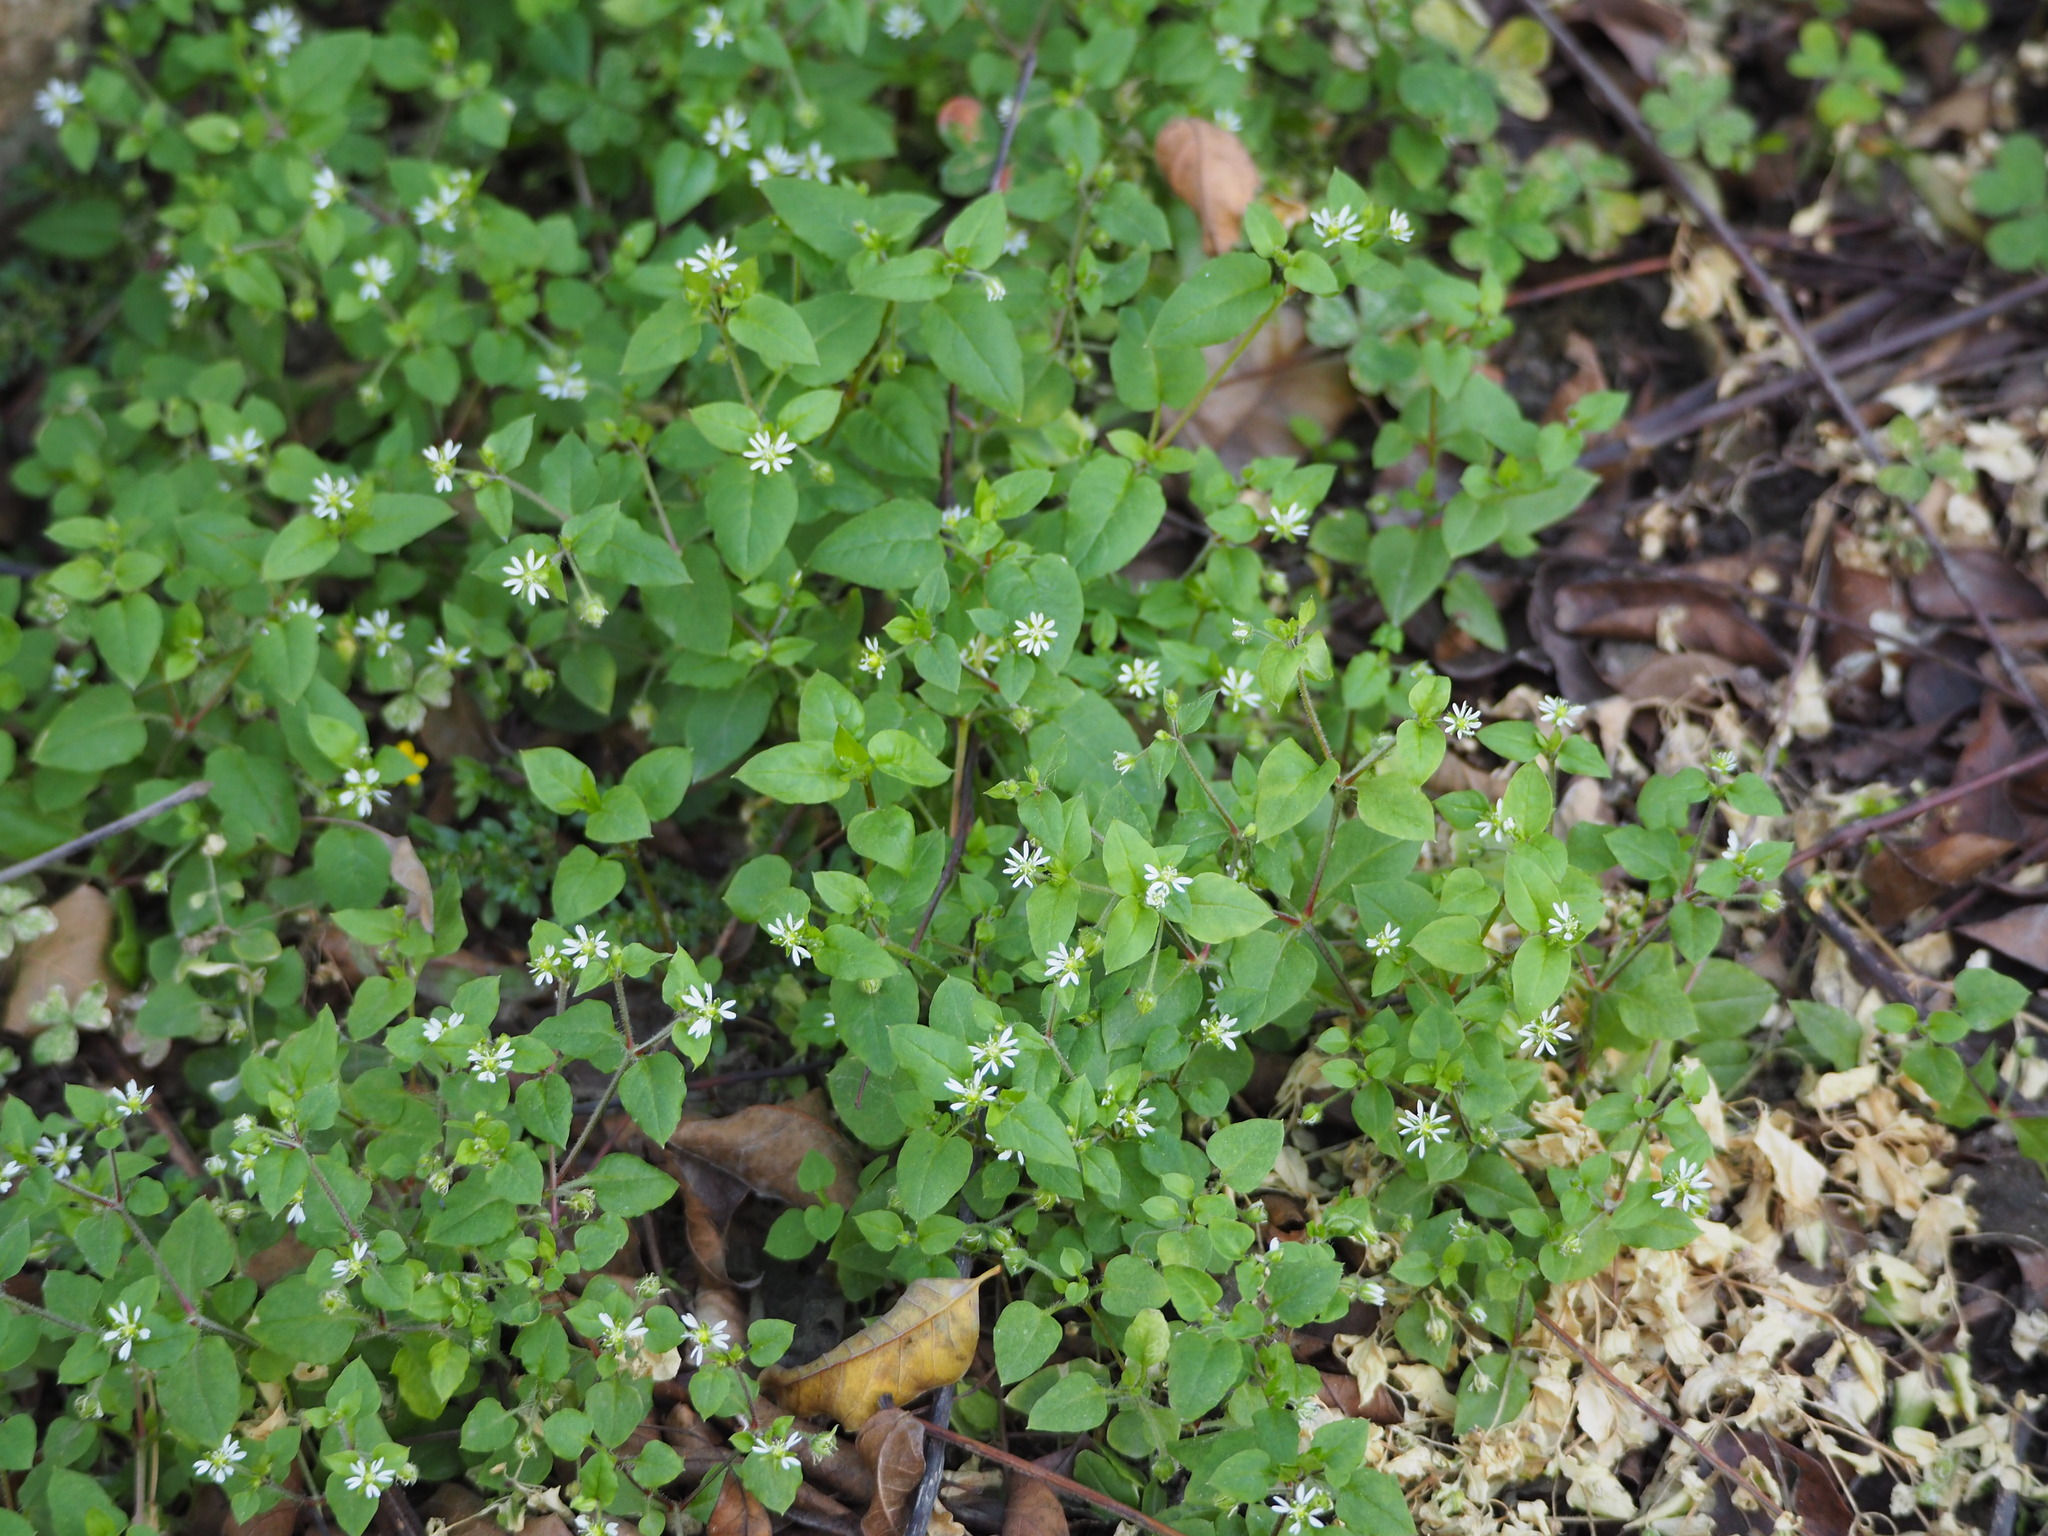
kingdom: Plantae
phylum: Tracheophyta
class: Magnoliopsida
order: Caryophyllales
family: Caryophyllaceae
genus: Stellaria
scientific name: Stellaria aquatica
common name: Water chickweed
